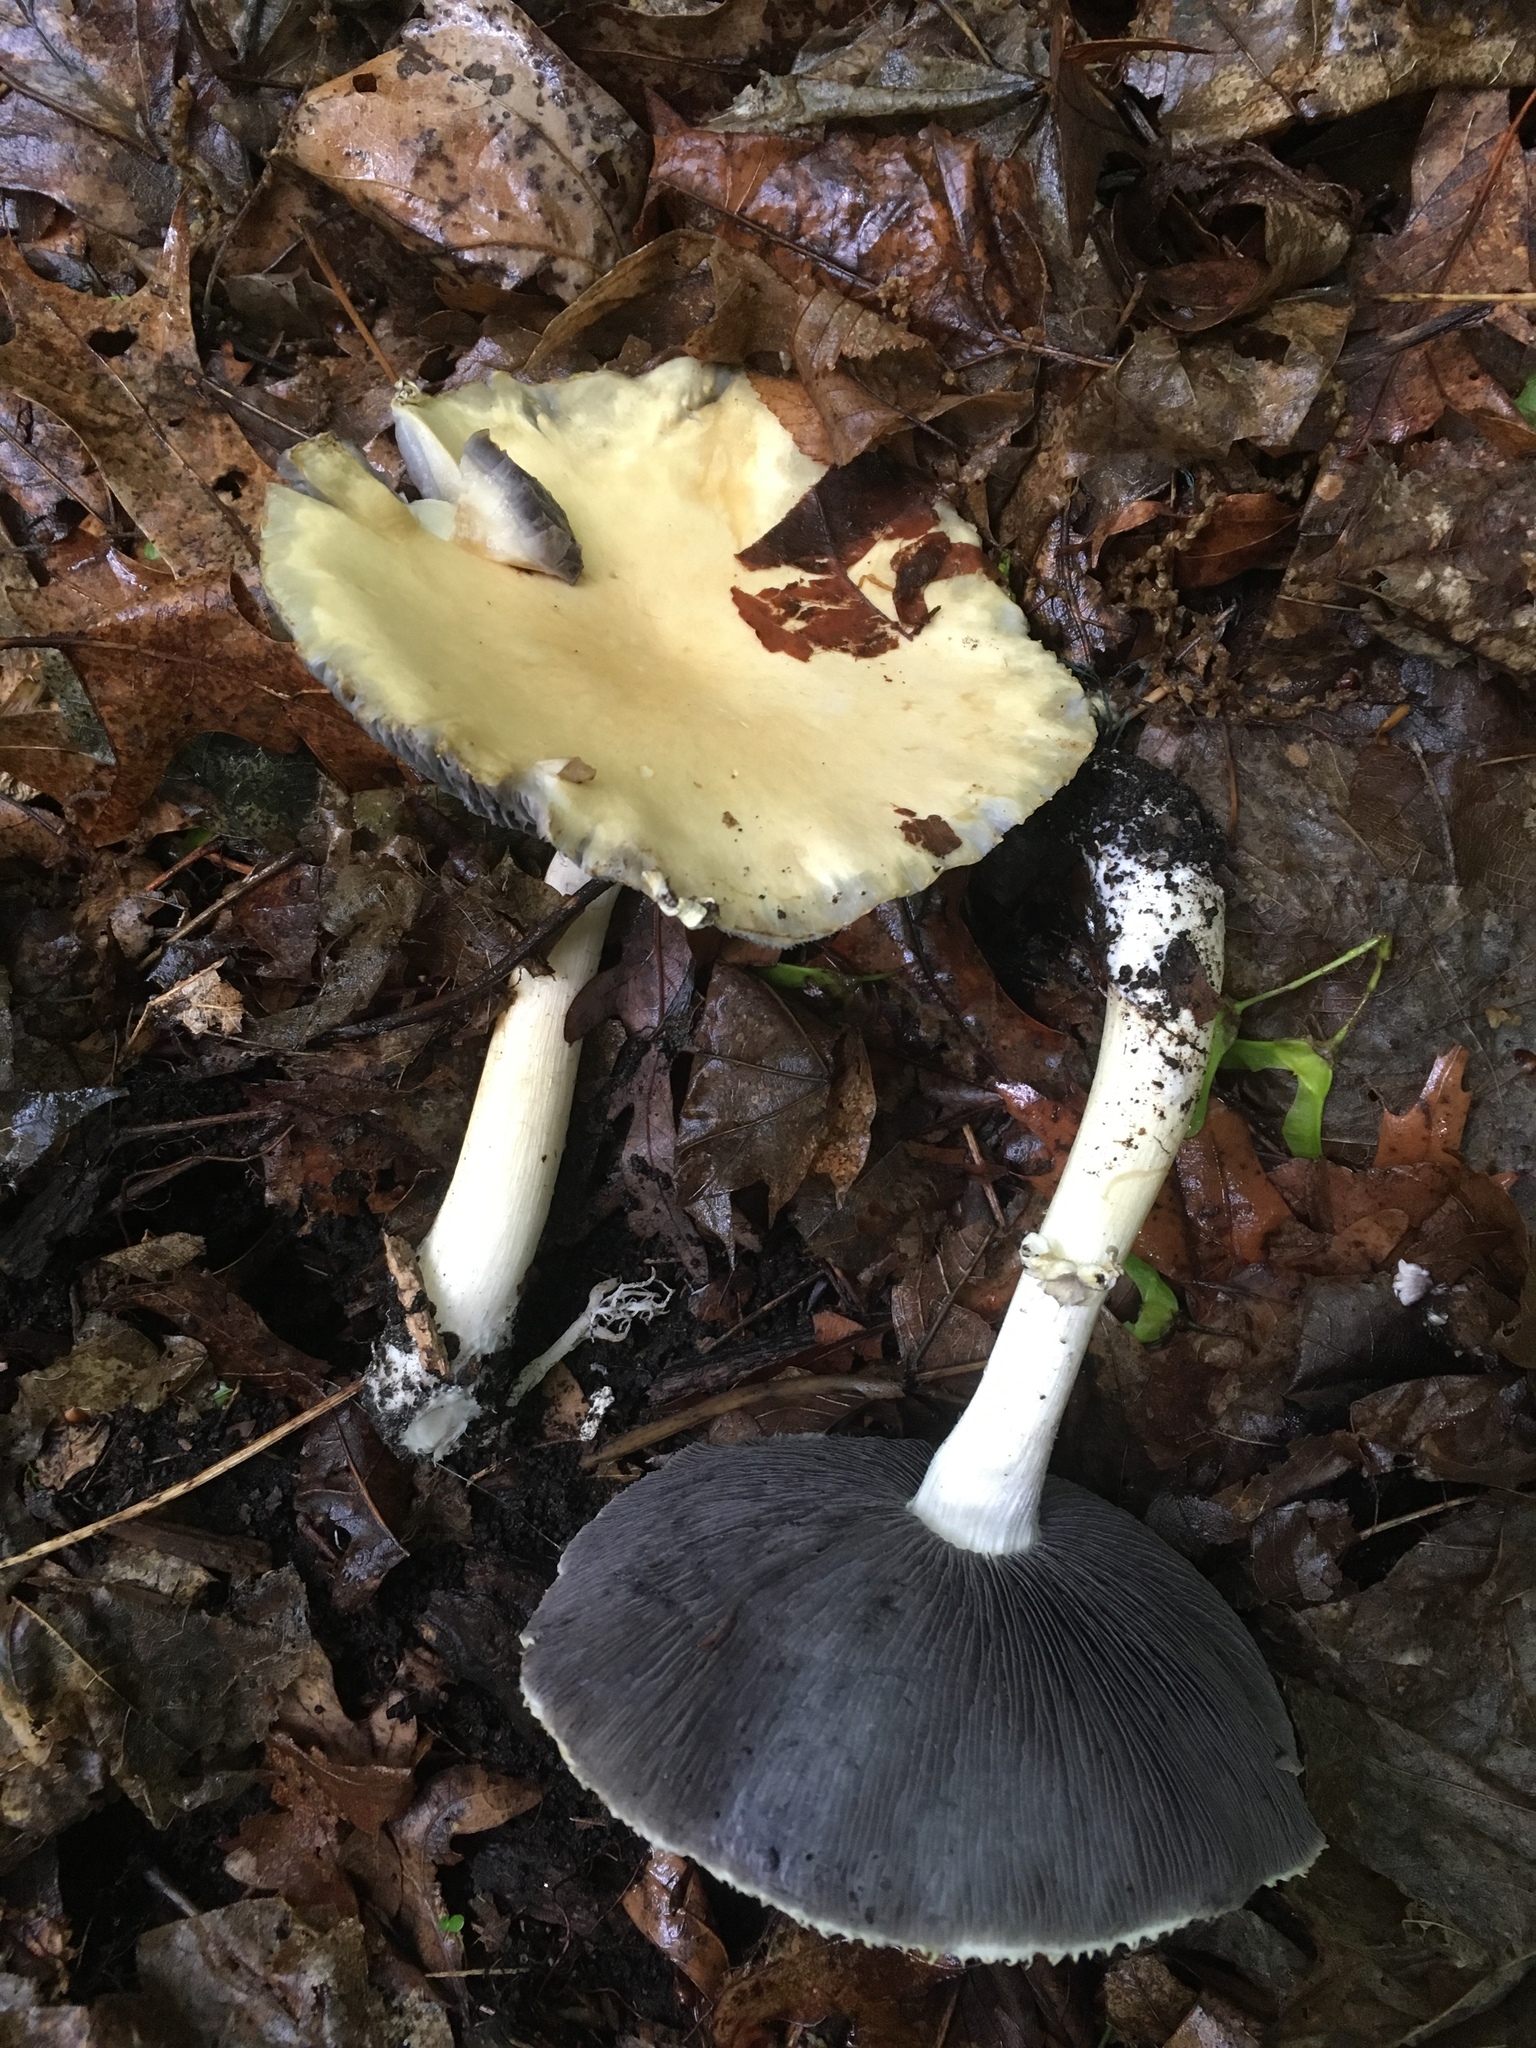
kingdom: Fungi
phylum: Basidiomycota
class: Agaricomycetes
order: Agaricales
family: Strophariaceae
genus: Stropharia
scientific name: Stropharia rugosoannulata
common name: Wine roundhead
